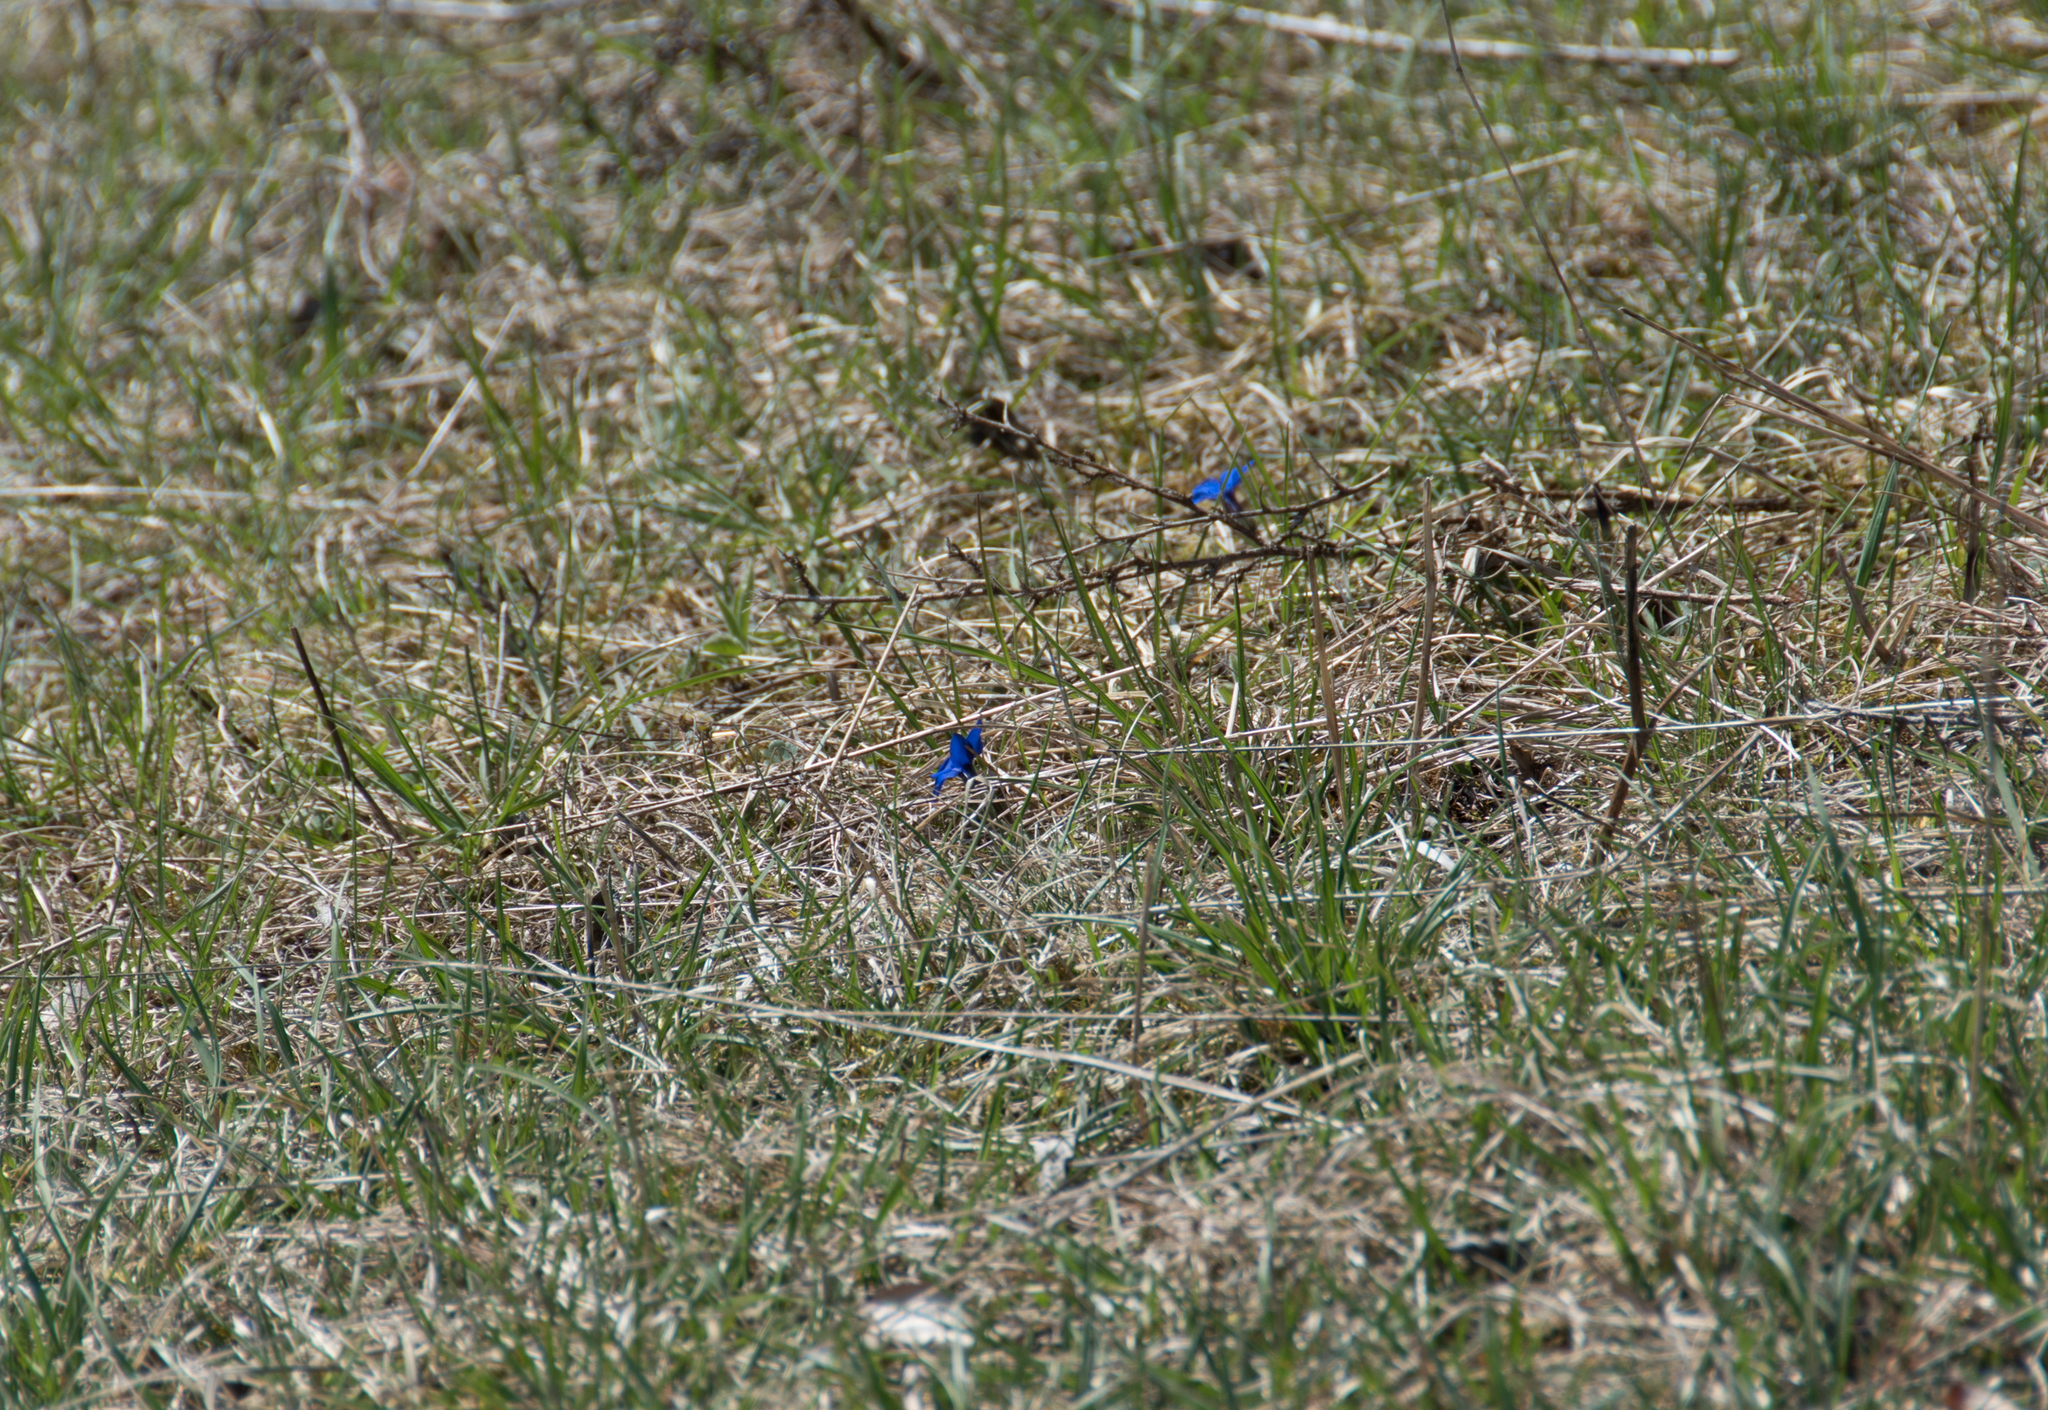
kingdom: Plantae
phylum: Tracheophyta
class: Magnoliopsida
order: Gentianales
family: Gentianaceae
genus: Gentiana
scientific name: Gentiana verna
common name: Spring gentian
